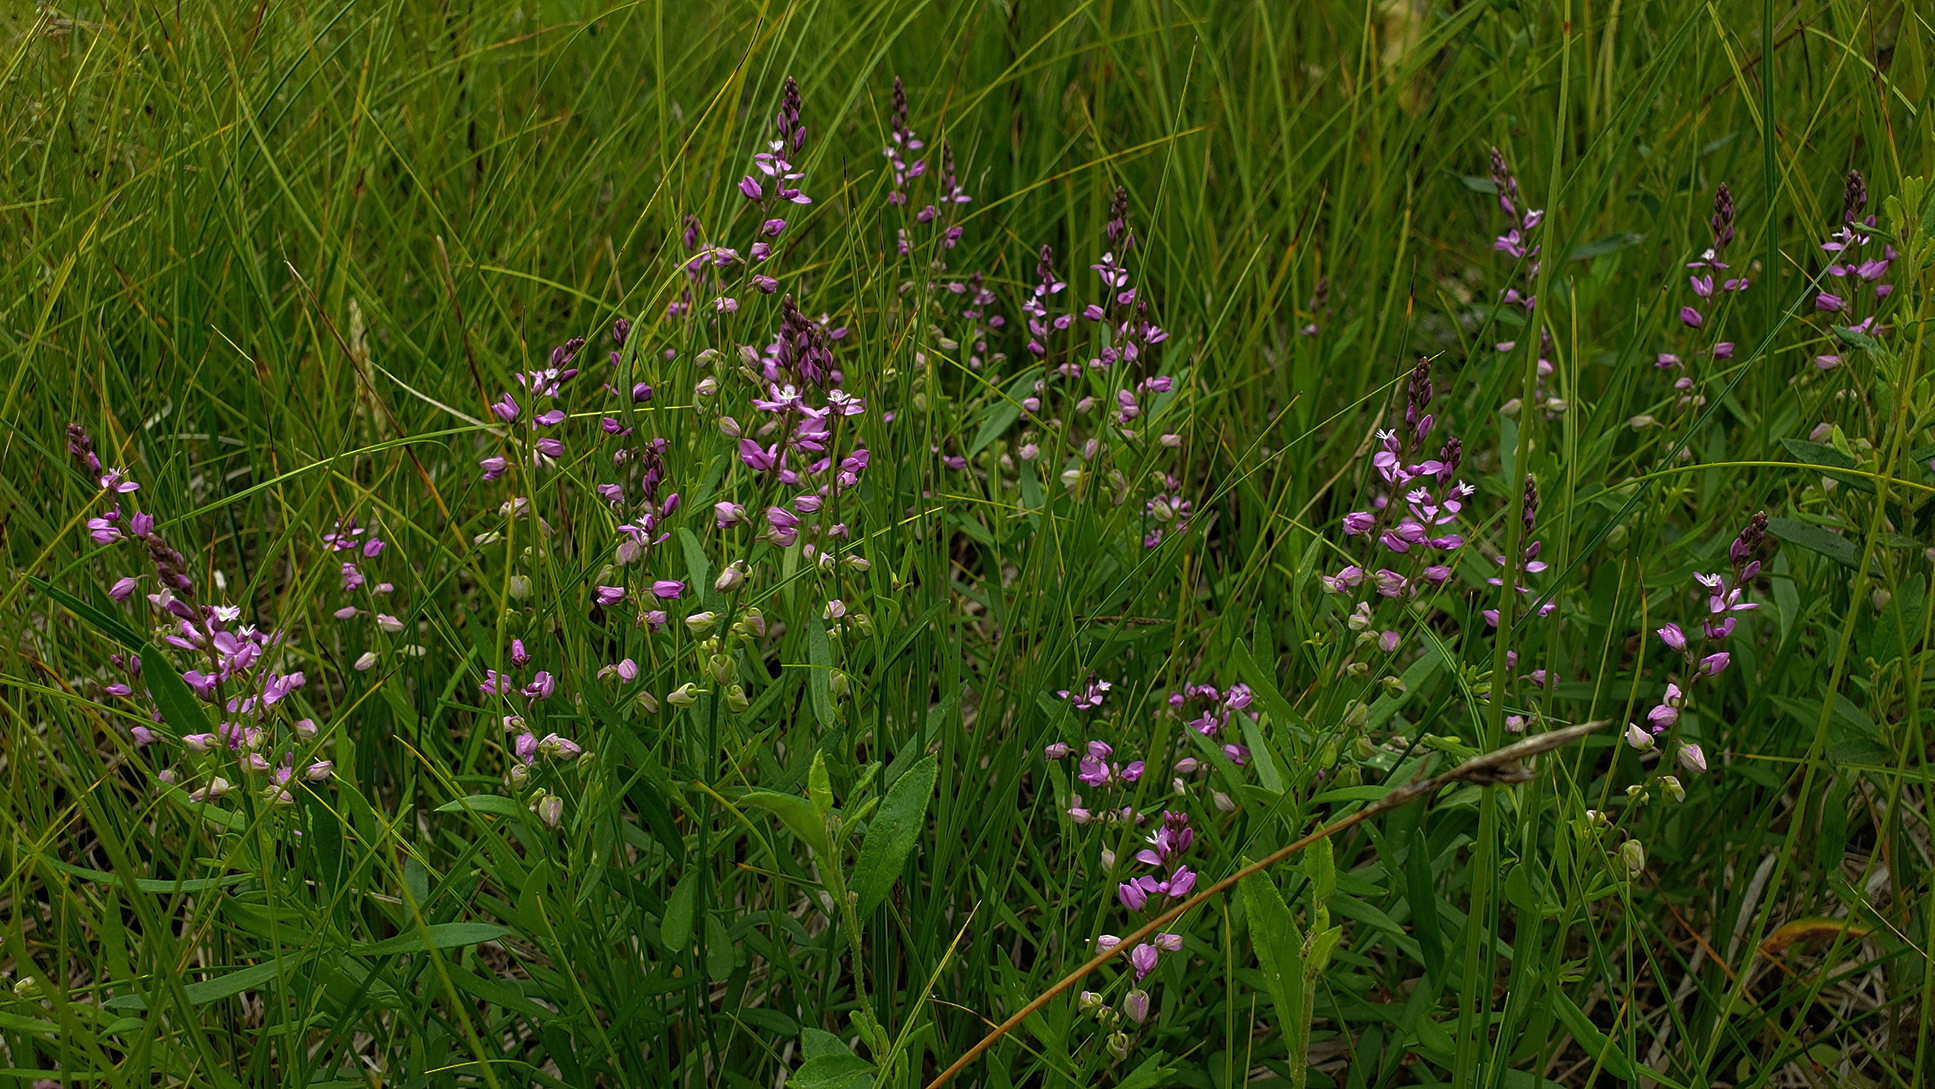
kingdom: Plantae
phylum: Tracheophyta
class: Magnoliopsida
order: Fabales
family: Polygalaceae
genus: Polygala
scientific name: Polygala polygama
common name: Bitter milkwort
